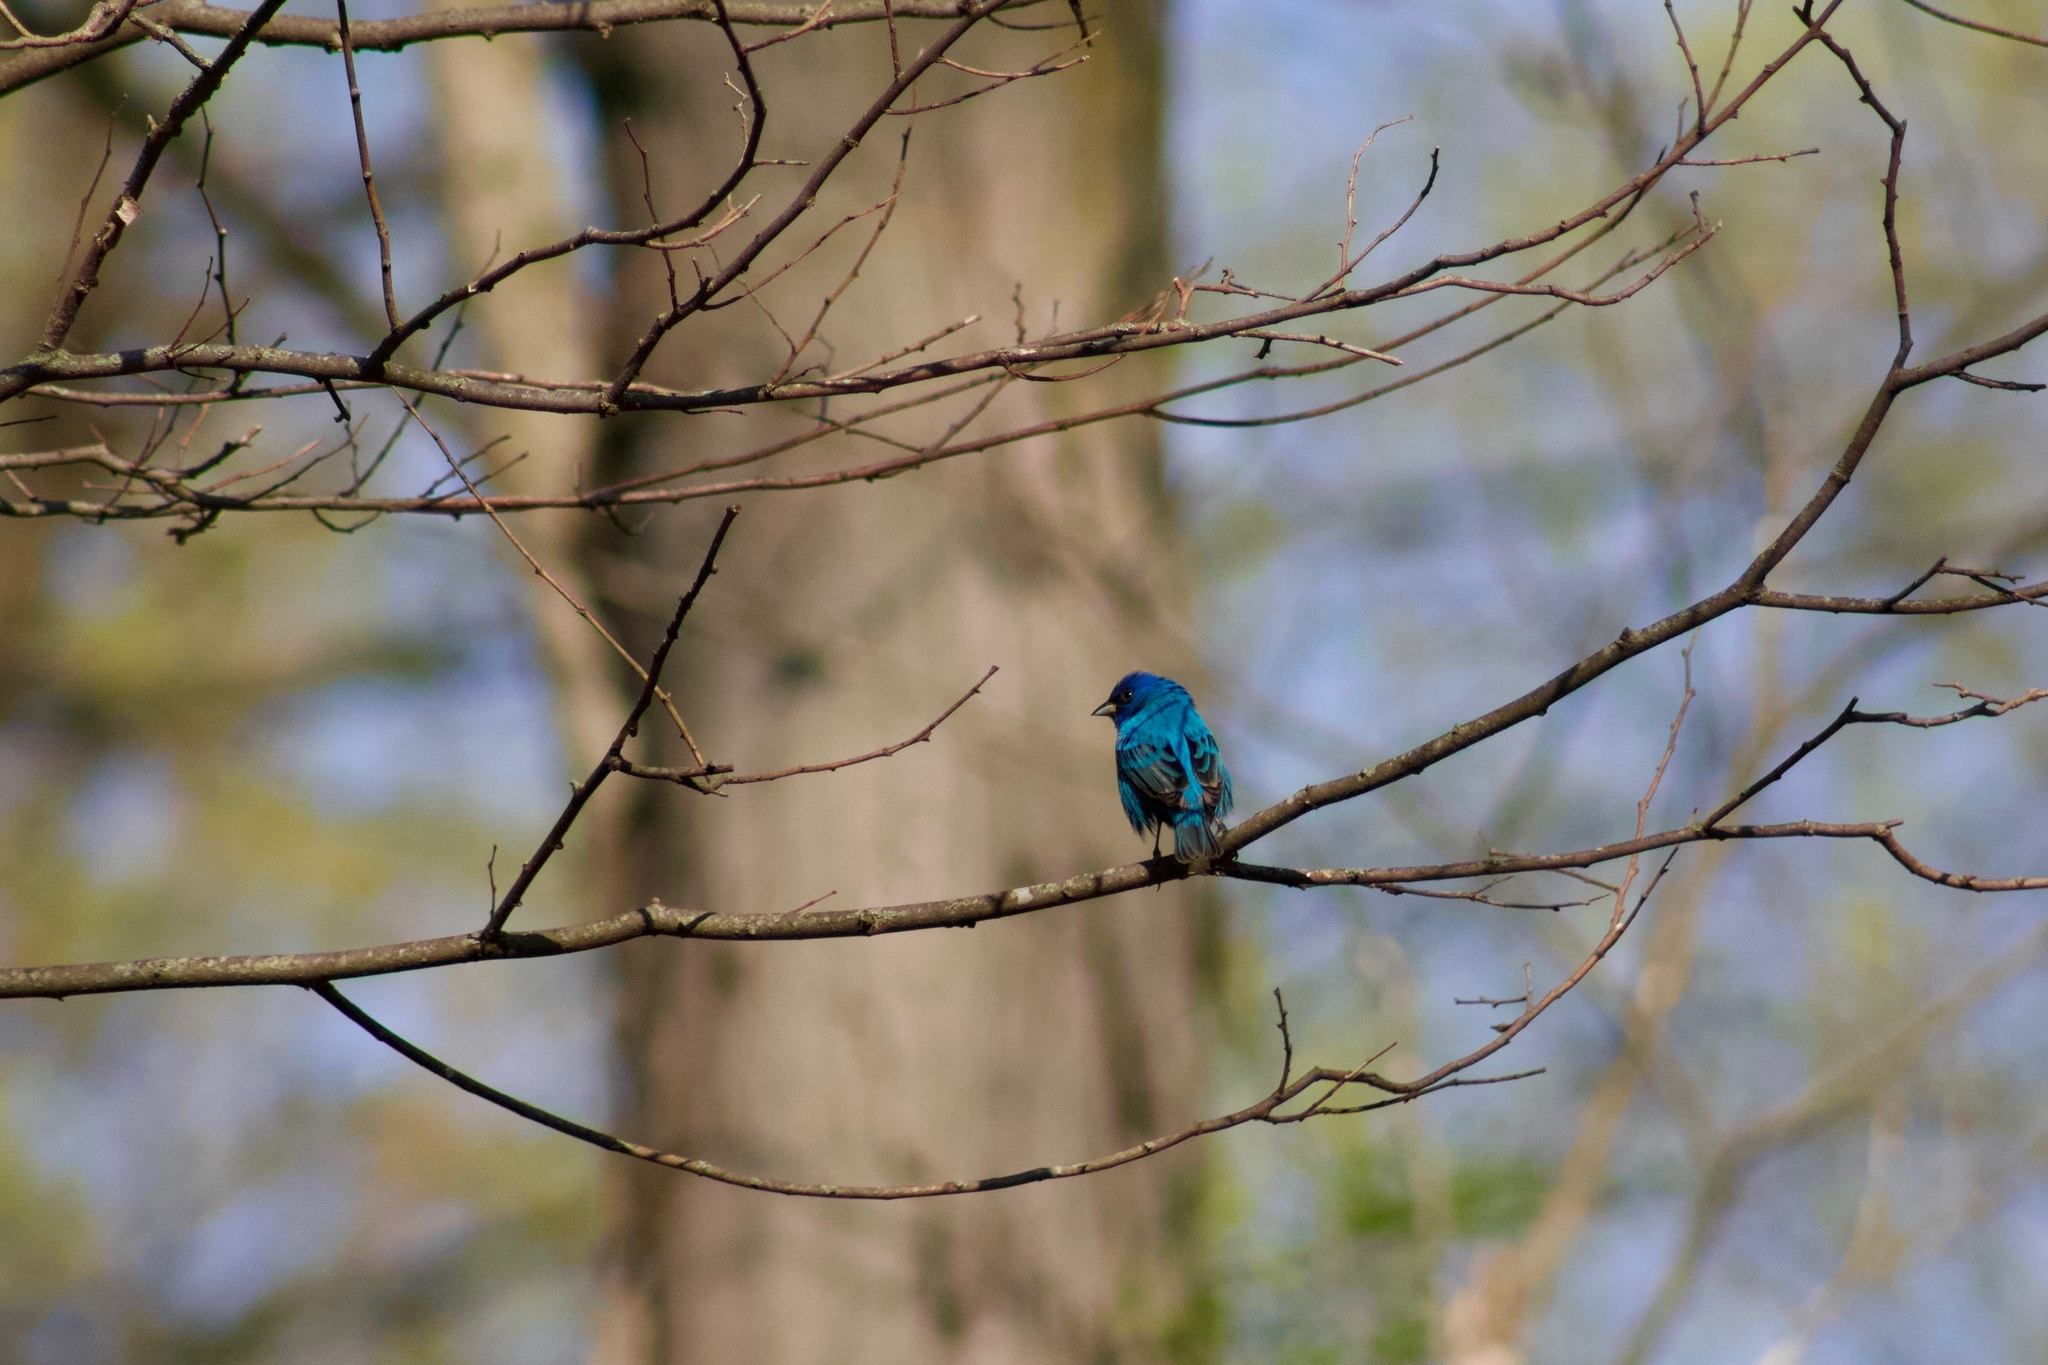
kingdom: Animalia
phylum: Chordata
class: Aves
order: Passeriformes
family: Cardinalidae
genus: Passerina
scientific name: Passerina cyanea
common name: Indigo bunting
